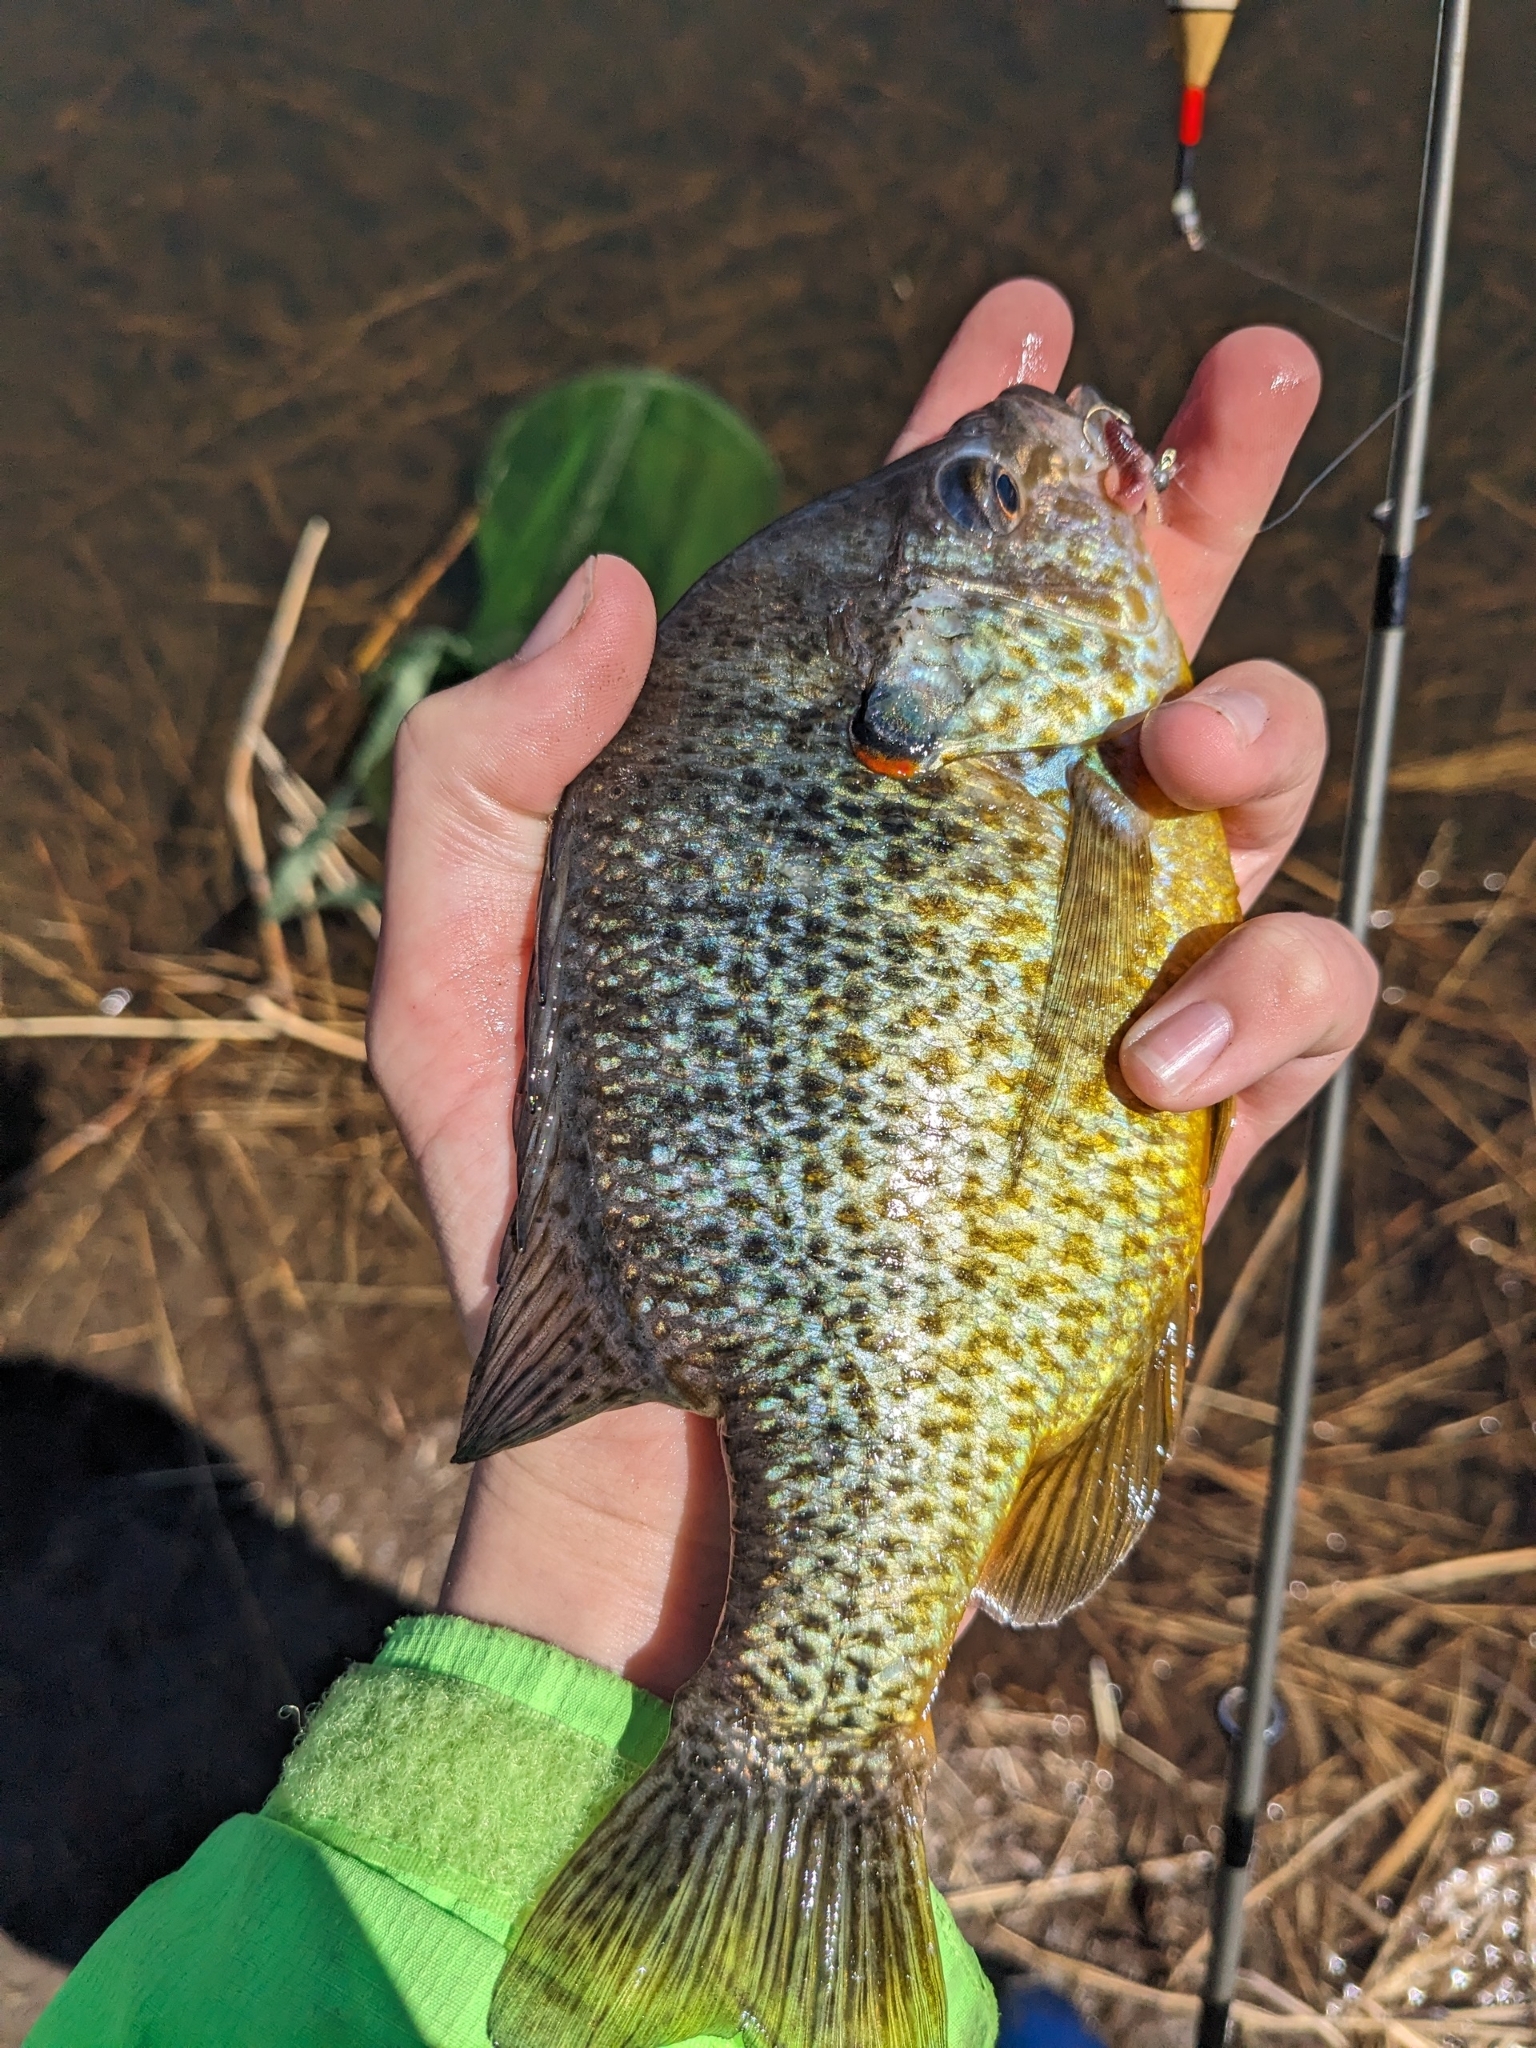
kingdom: Animalia
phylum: Chordata
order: Perciformes
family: Centrarchidae
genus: Lepomis
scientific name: Lepomis gibbosus
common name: Pumpkinseed
